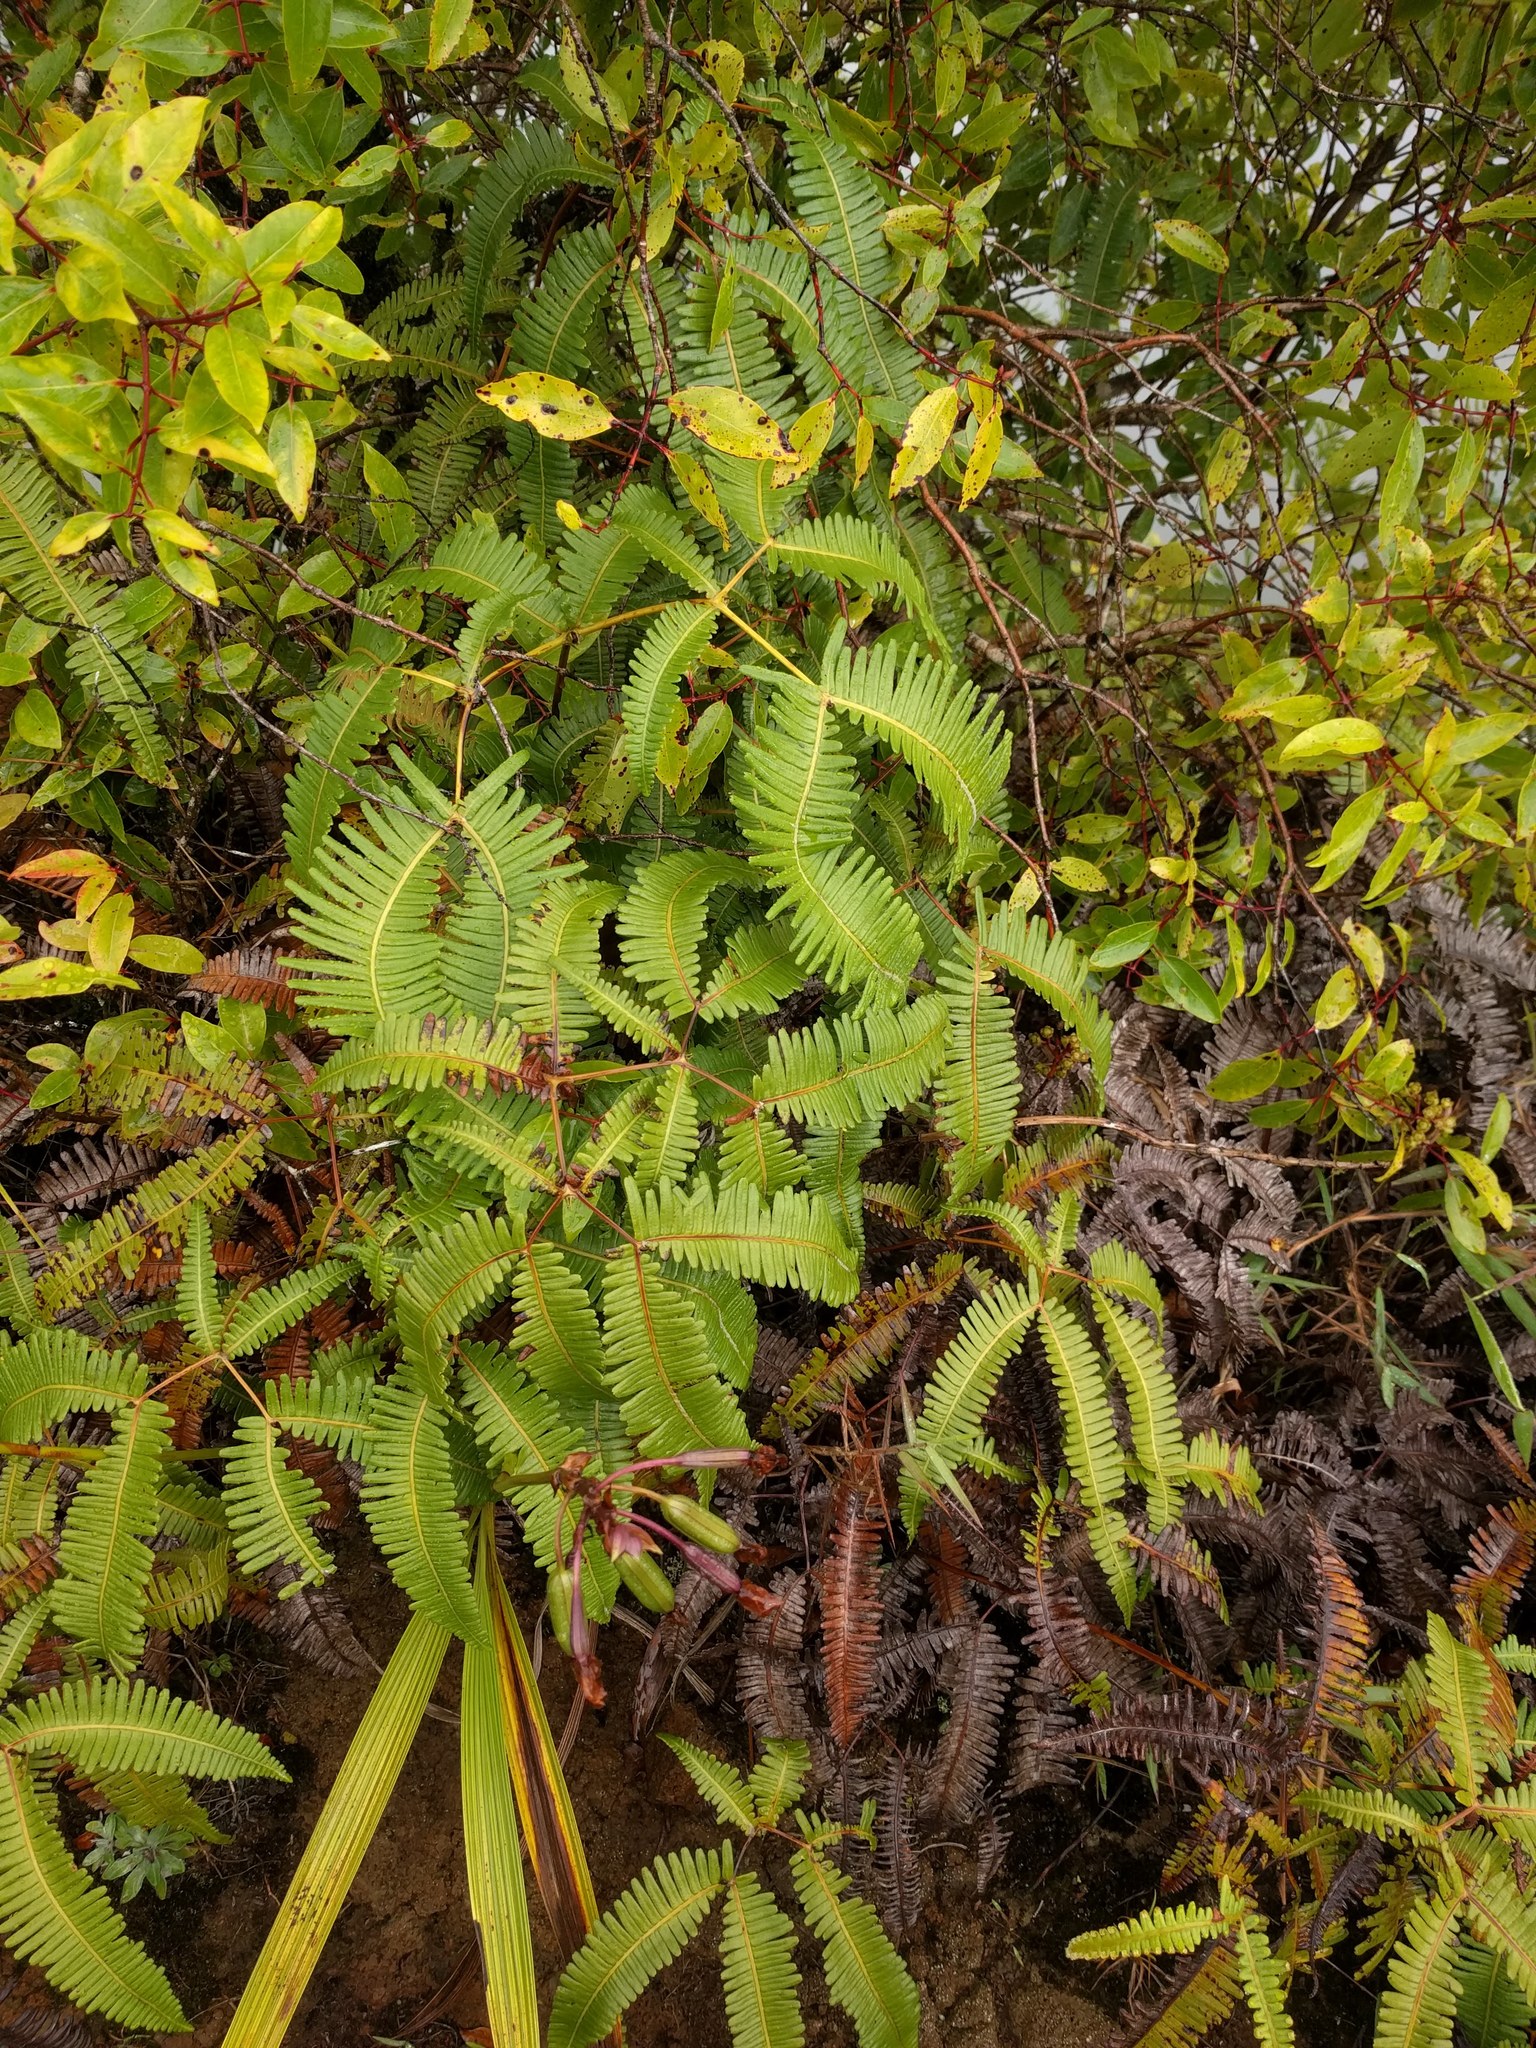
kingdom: Plantae
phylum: Tracheophyta
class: Polypodiopsida
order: Gleicheniales
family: Gleicheniaceae
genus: Dicranopteris
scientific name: Dicranopteris linearis
